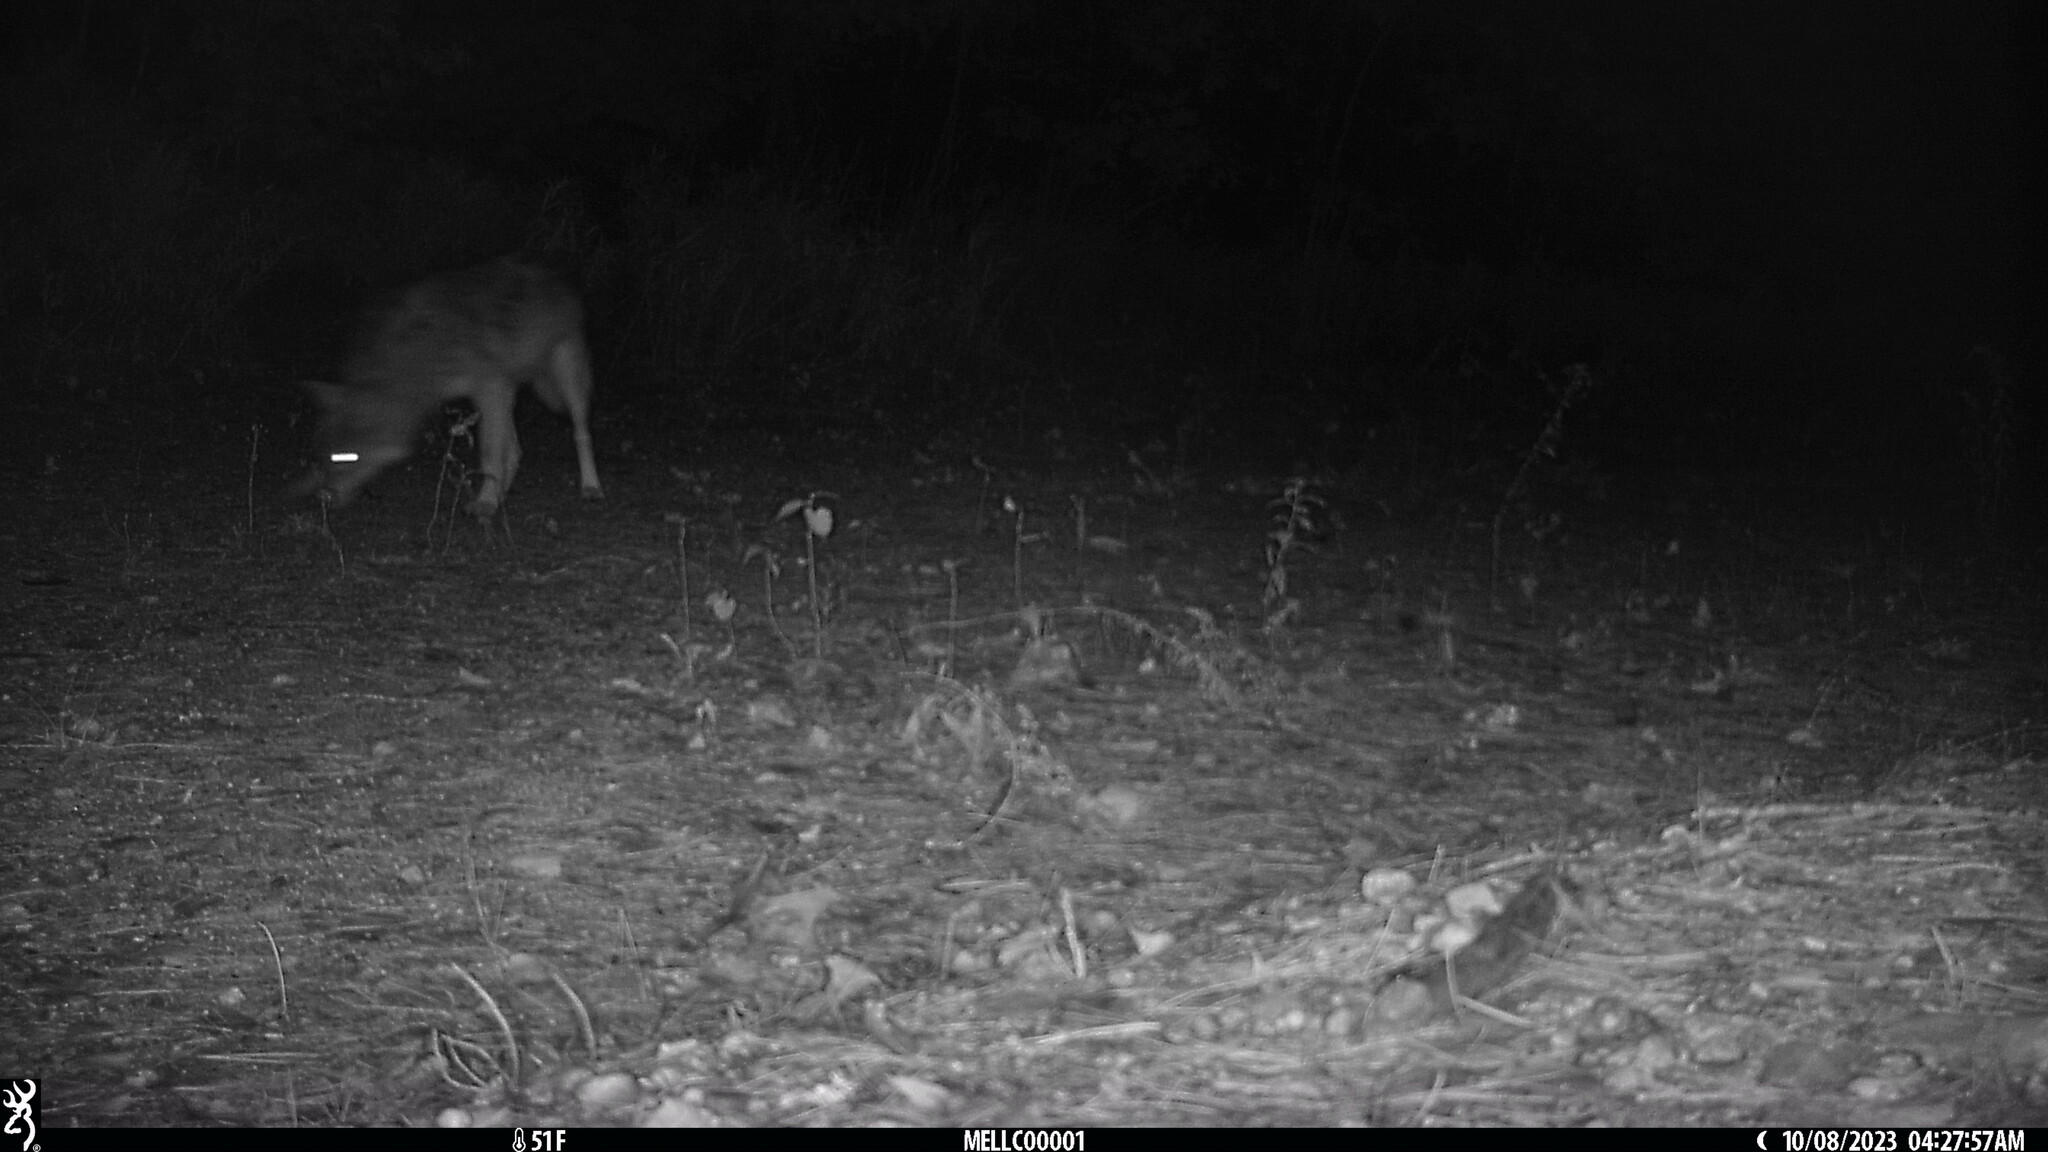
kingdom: Animalia
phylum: Chordata
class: Mammalia
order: Carnivora
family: Canidae
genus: Canis
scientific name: Canis latrans
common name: Coyote
